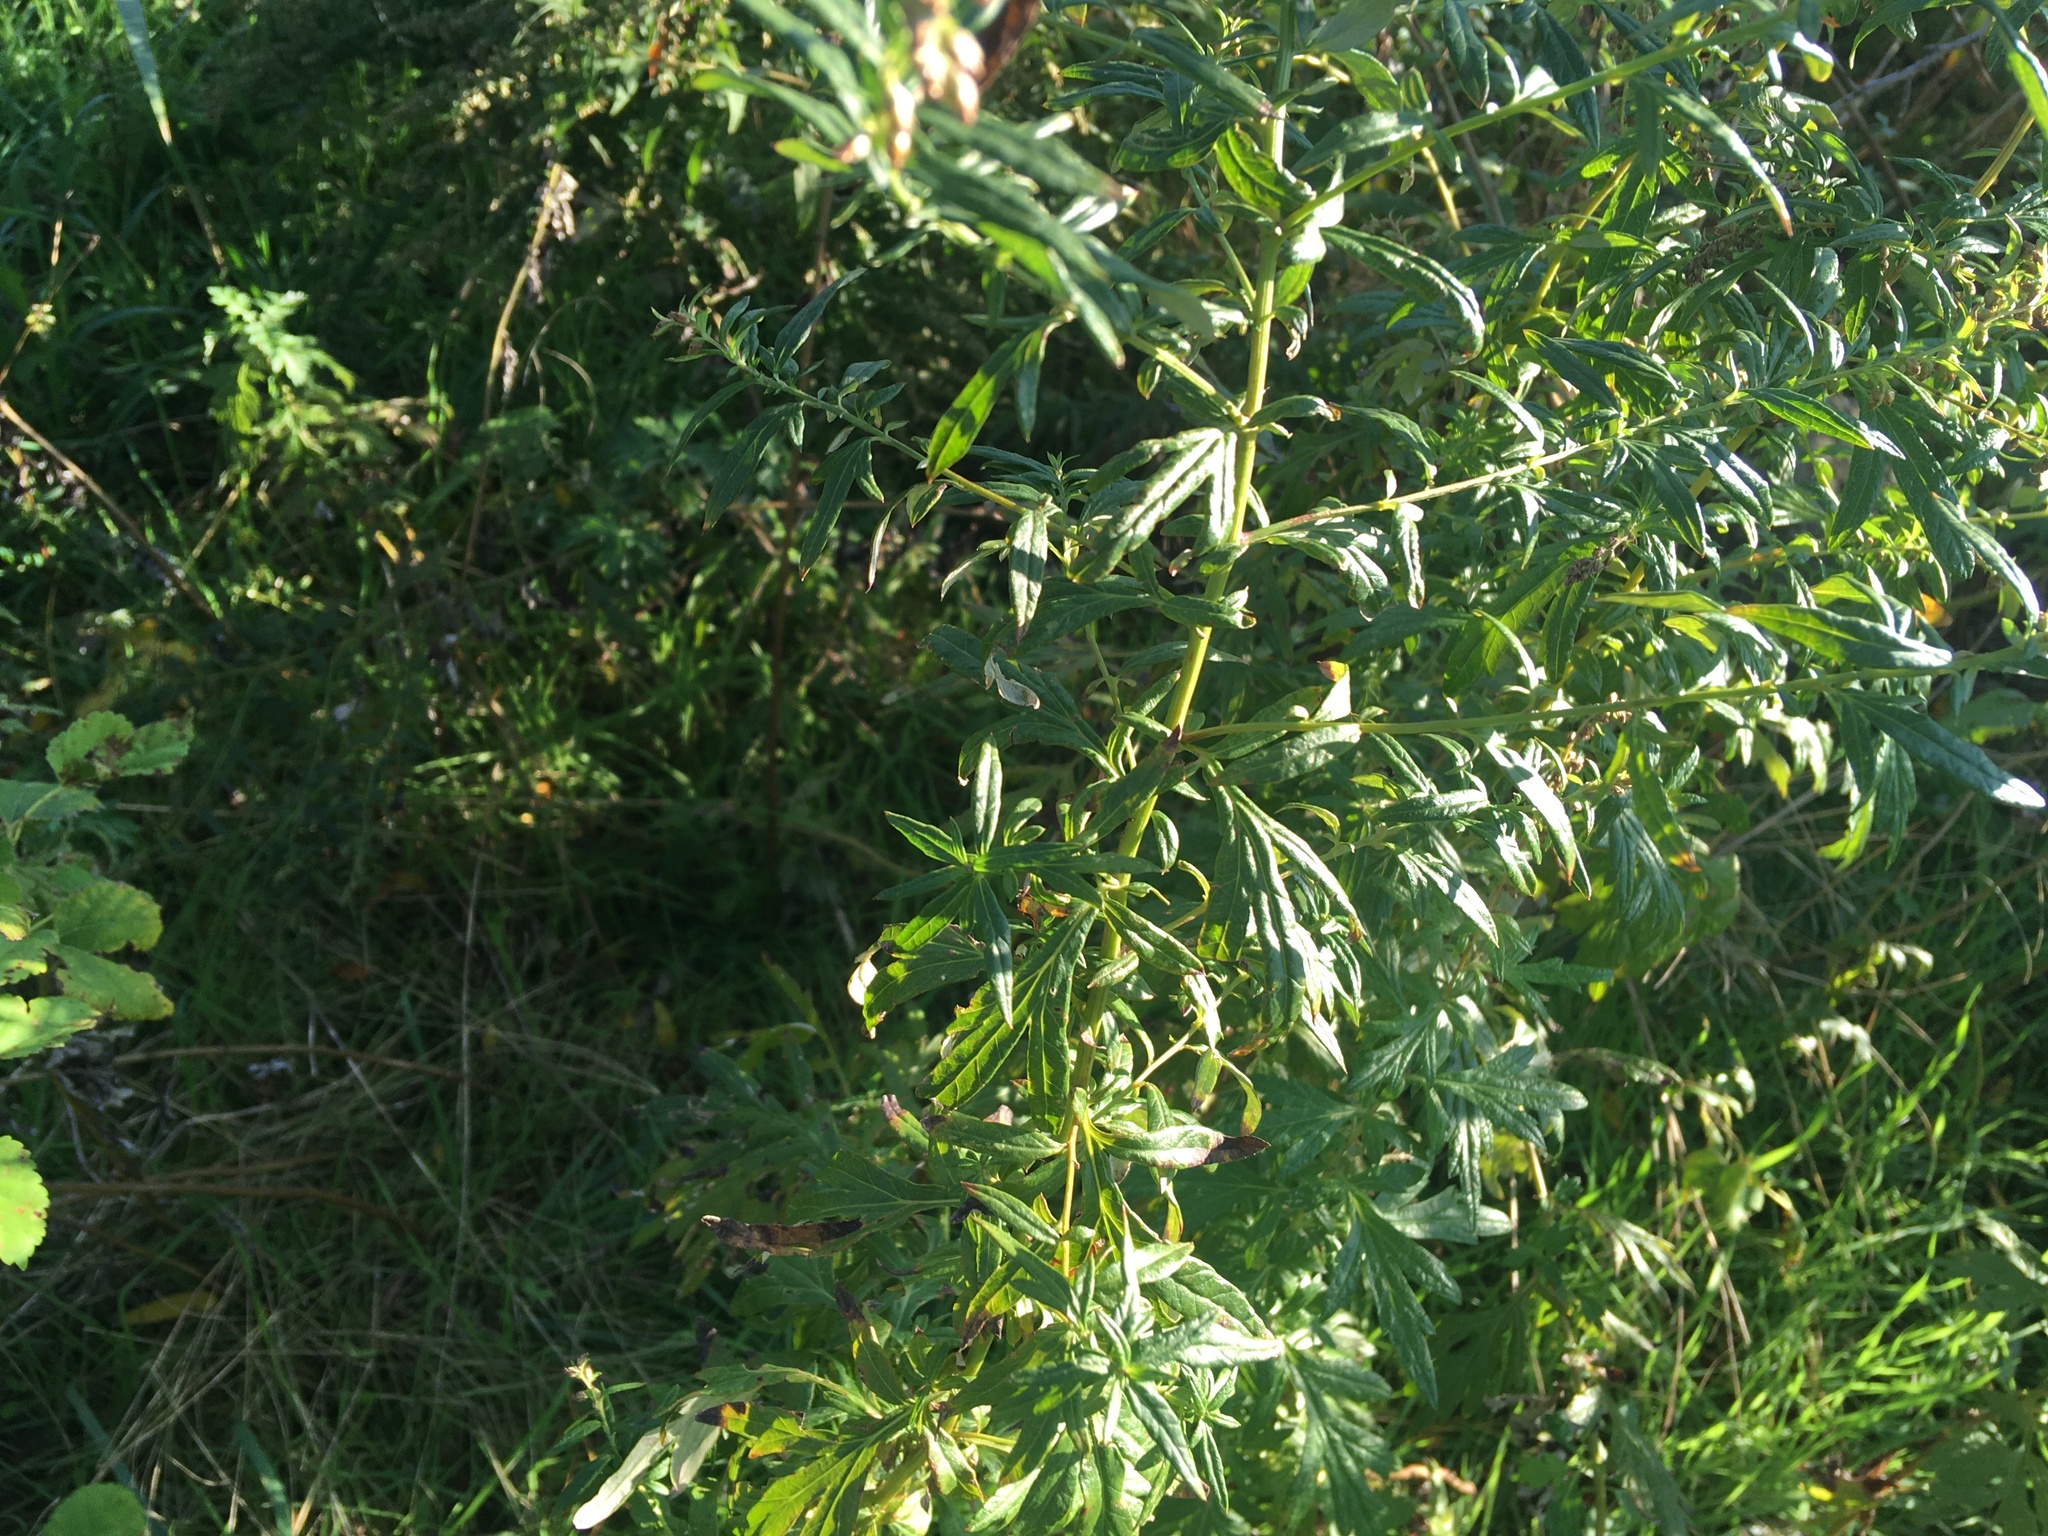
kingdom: Plantae
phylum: Tracheophyta
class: Magnoliopsida
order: Asterales
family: Asteraceae
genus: Artemisia
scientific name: Artemisia vulgaris
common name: Mugwort
